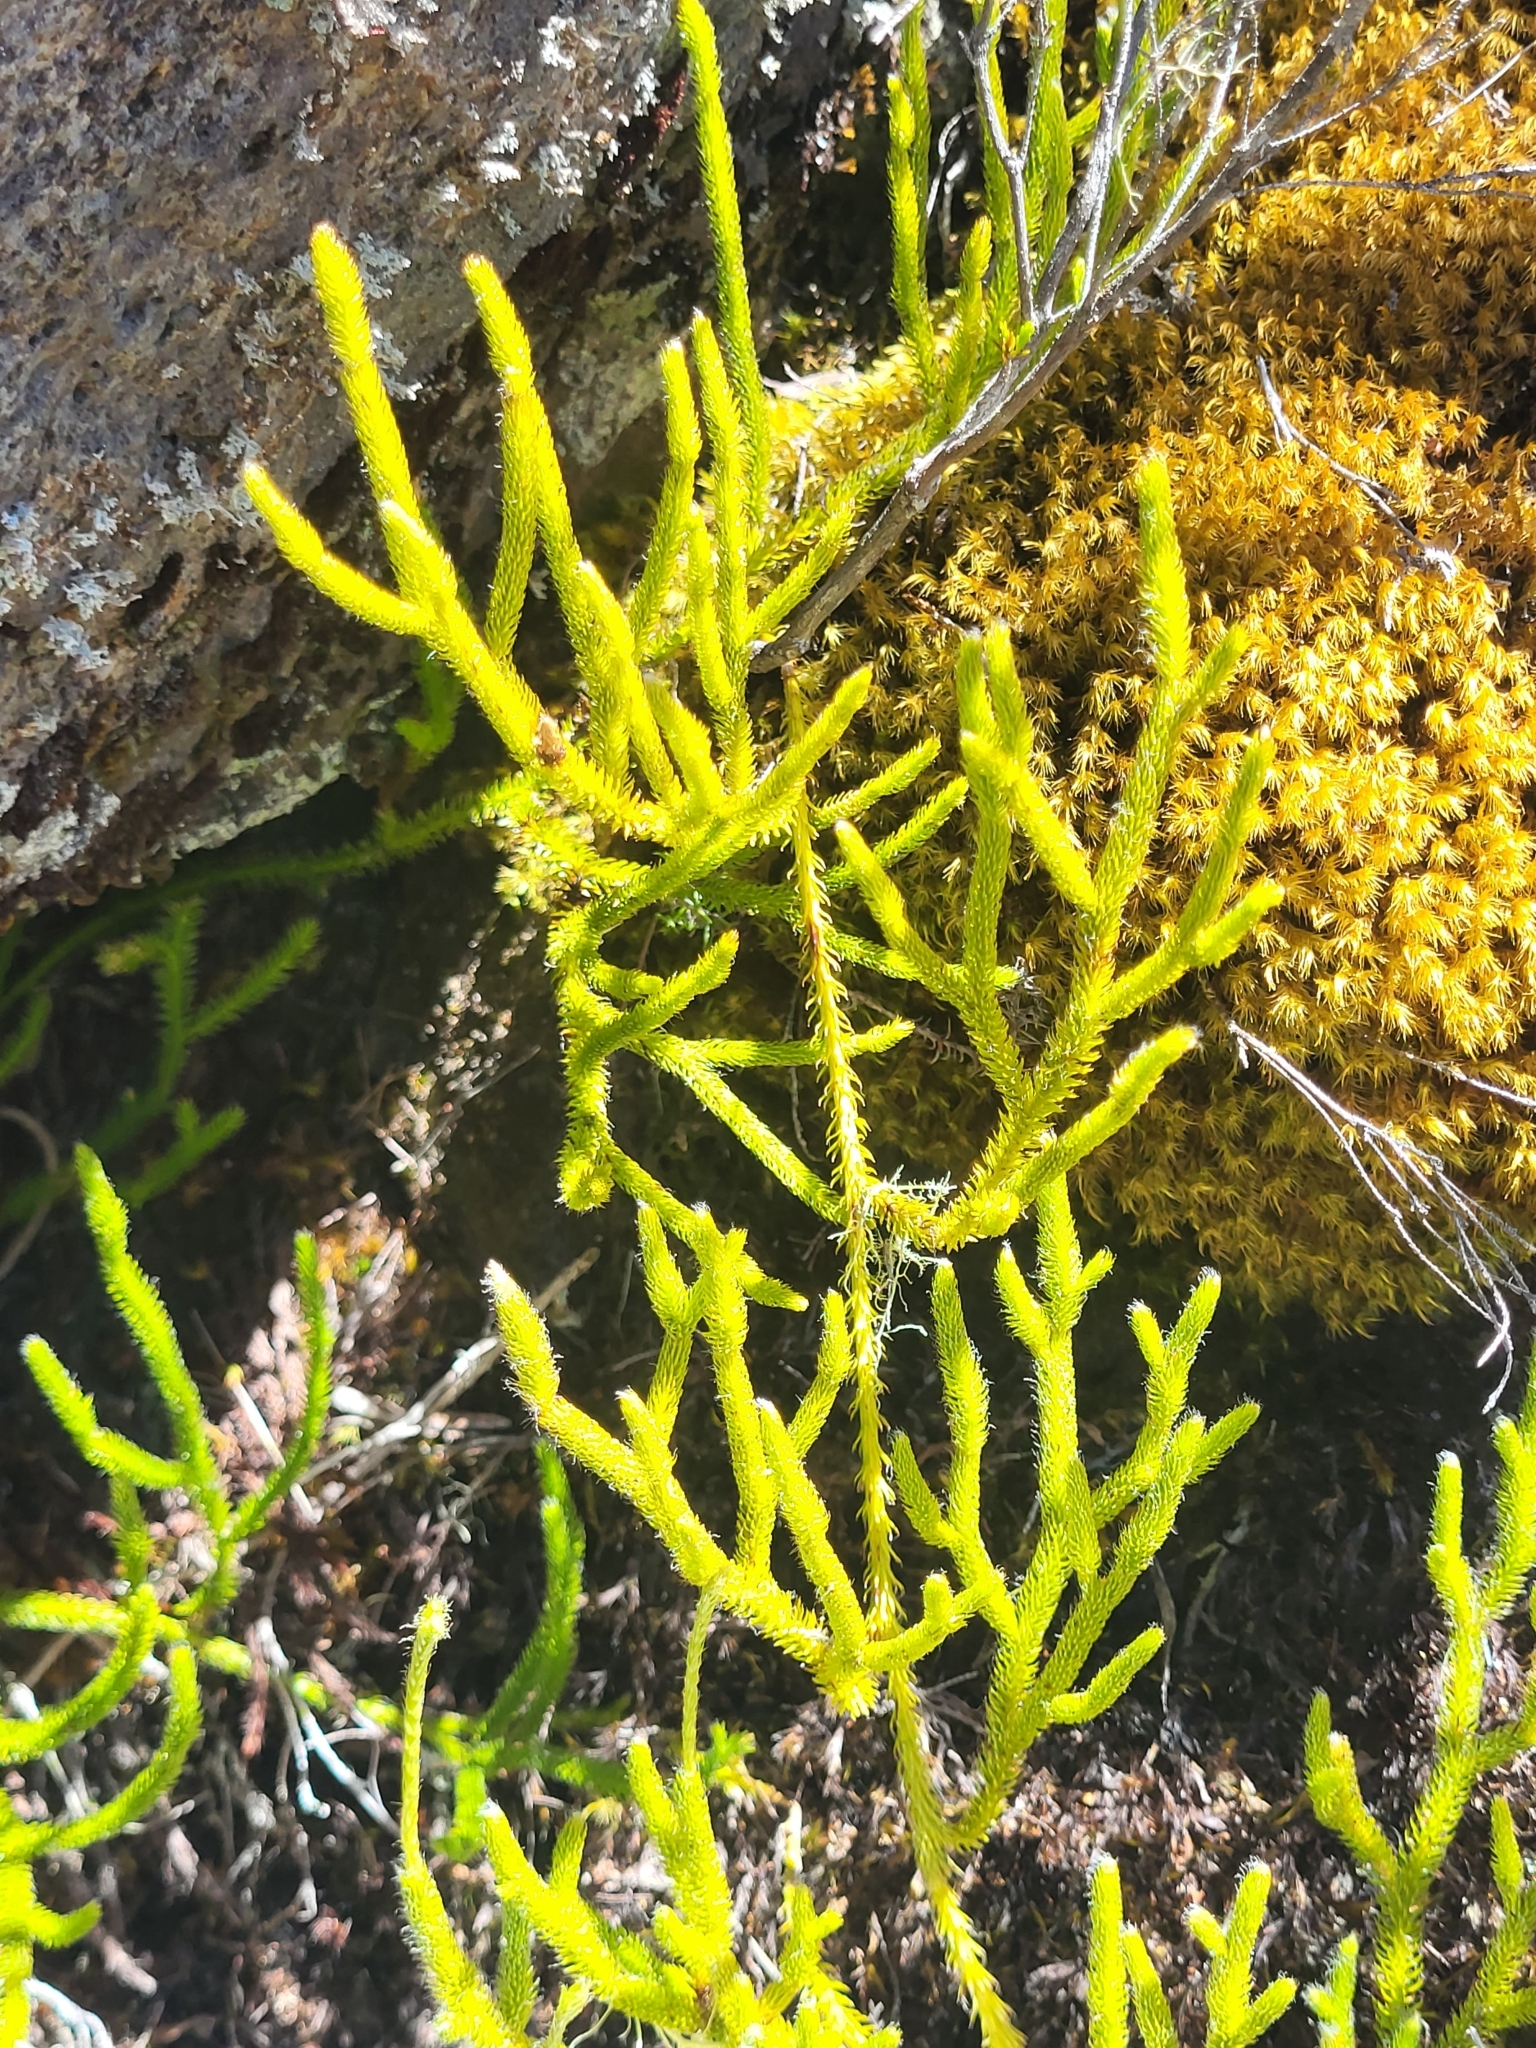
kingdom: Plantae
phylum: Tracheophyta
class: Lycopodiopsida
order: Lycopodiales
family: Lycopodiaceae
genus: Palhinhaea
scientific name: Palhinhaea cernua
